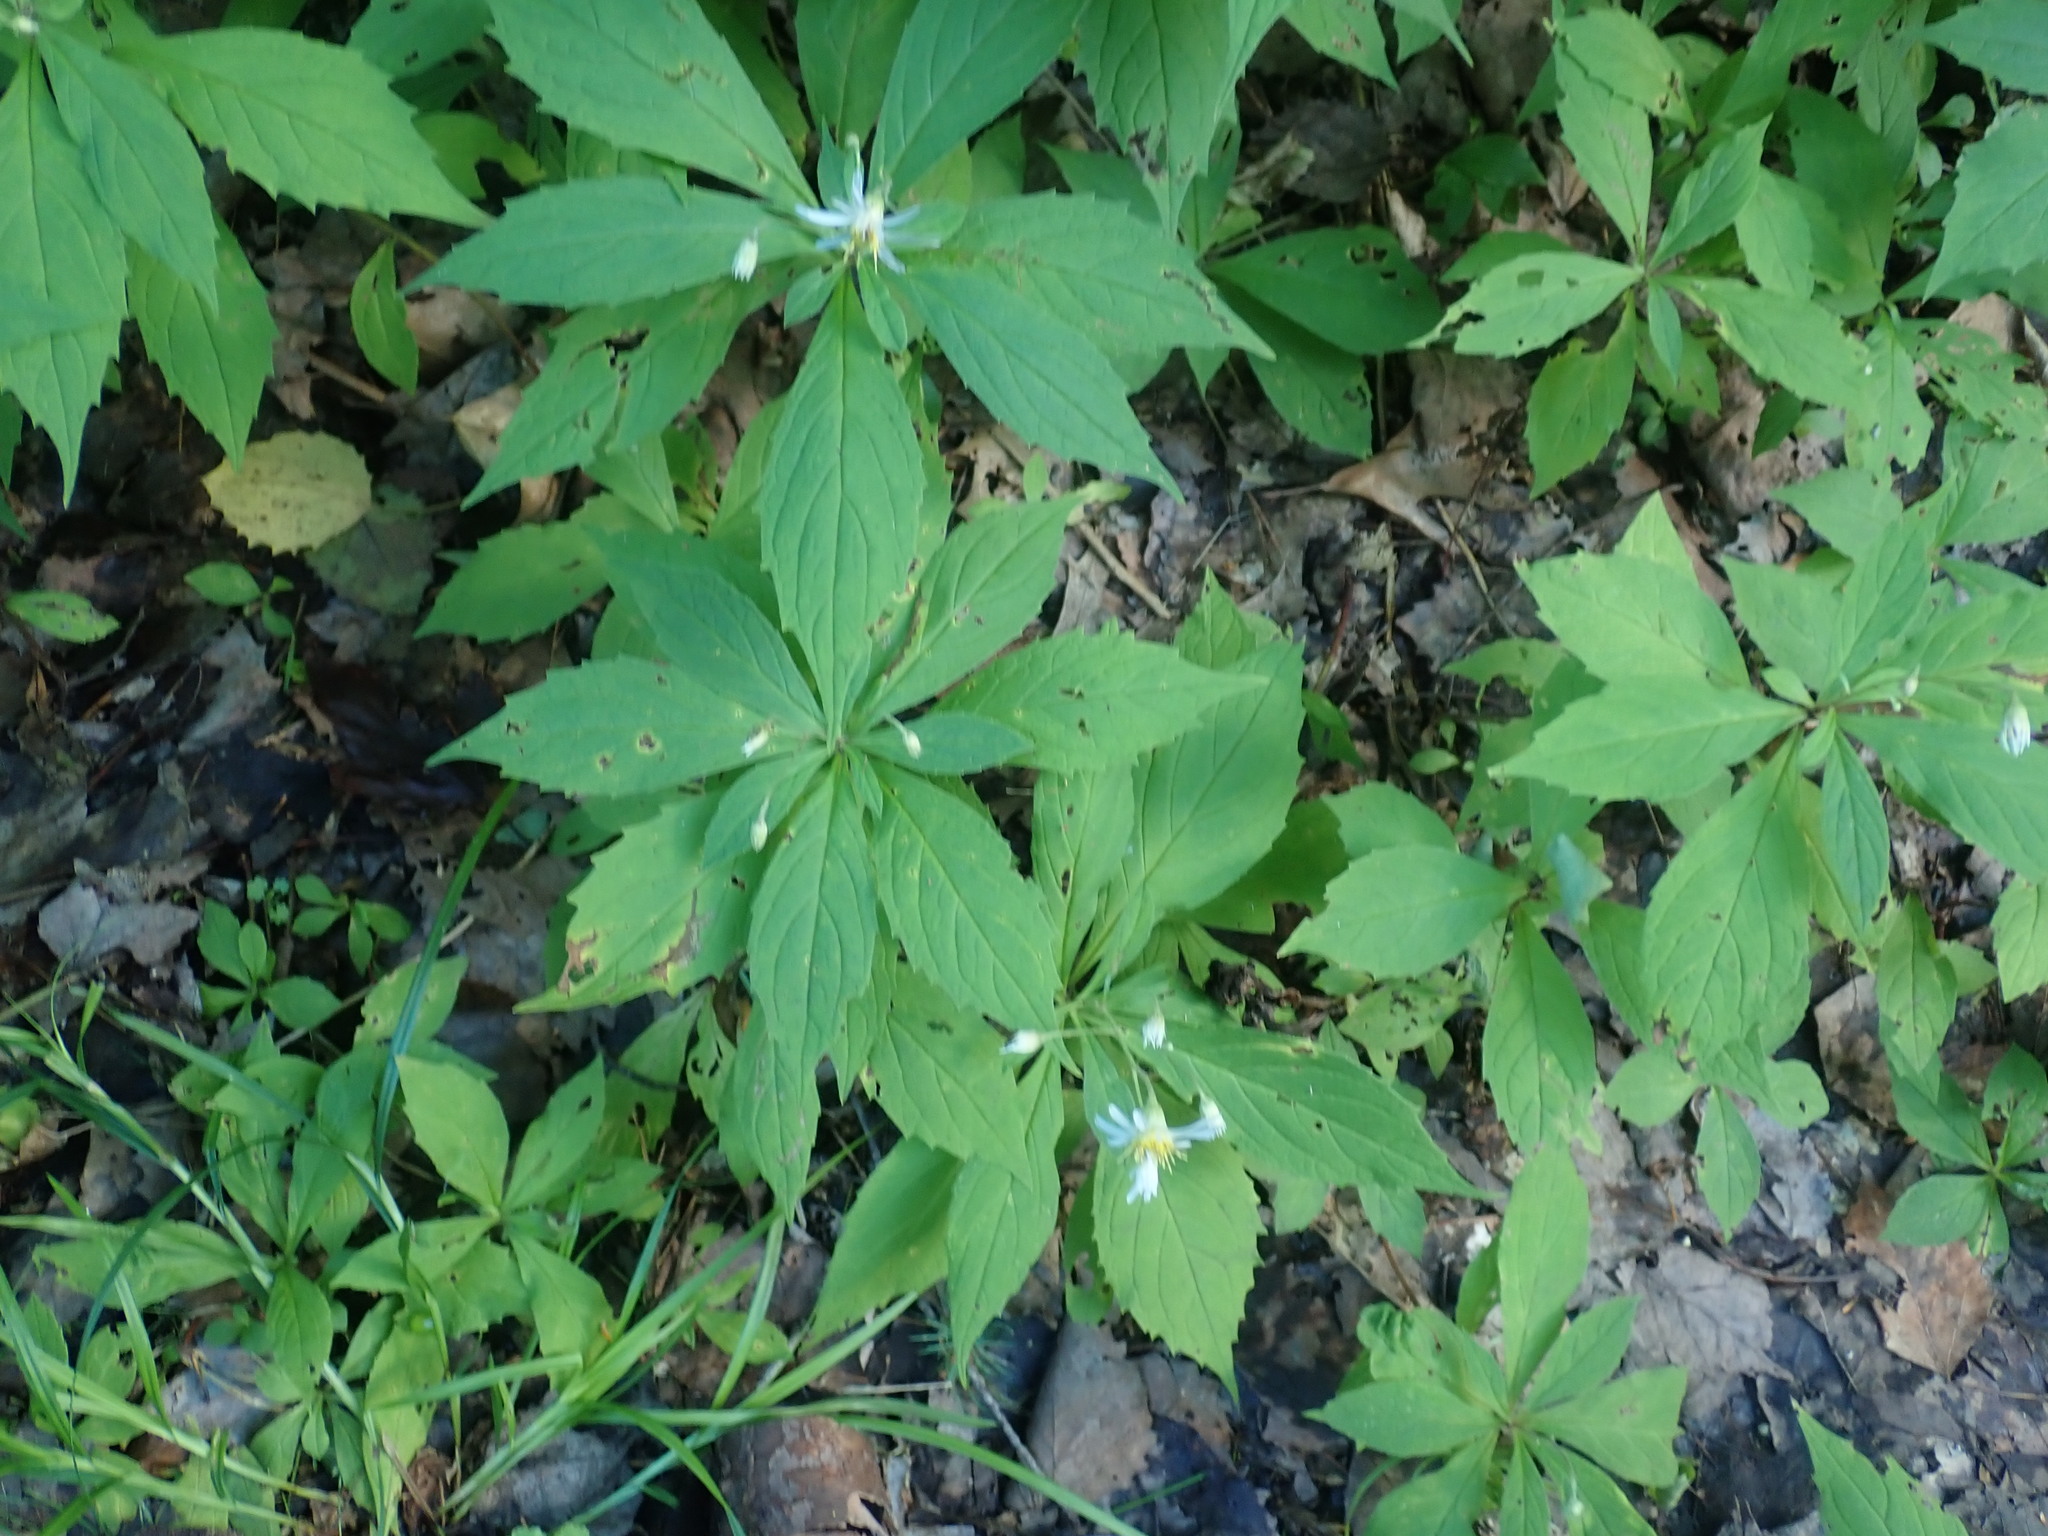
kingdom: Plantae
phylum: Tracheophyta
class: Magnoliopsida
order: Asterales
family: Asteraceae
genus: Oclemena
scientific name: Oclemena acuminata
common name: Mountain aster
